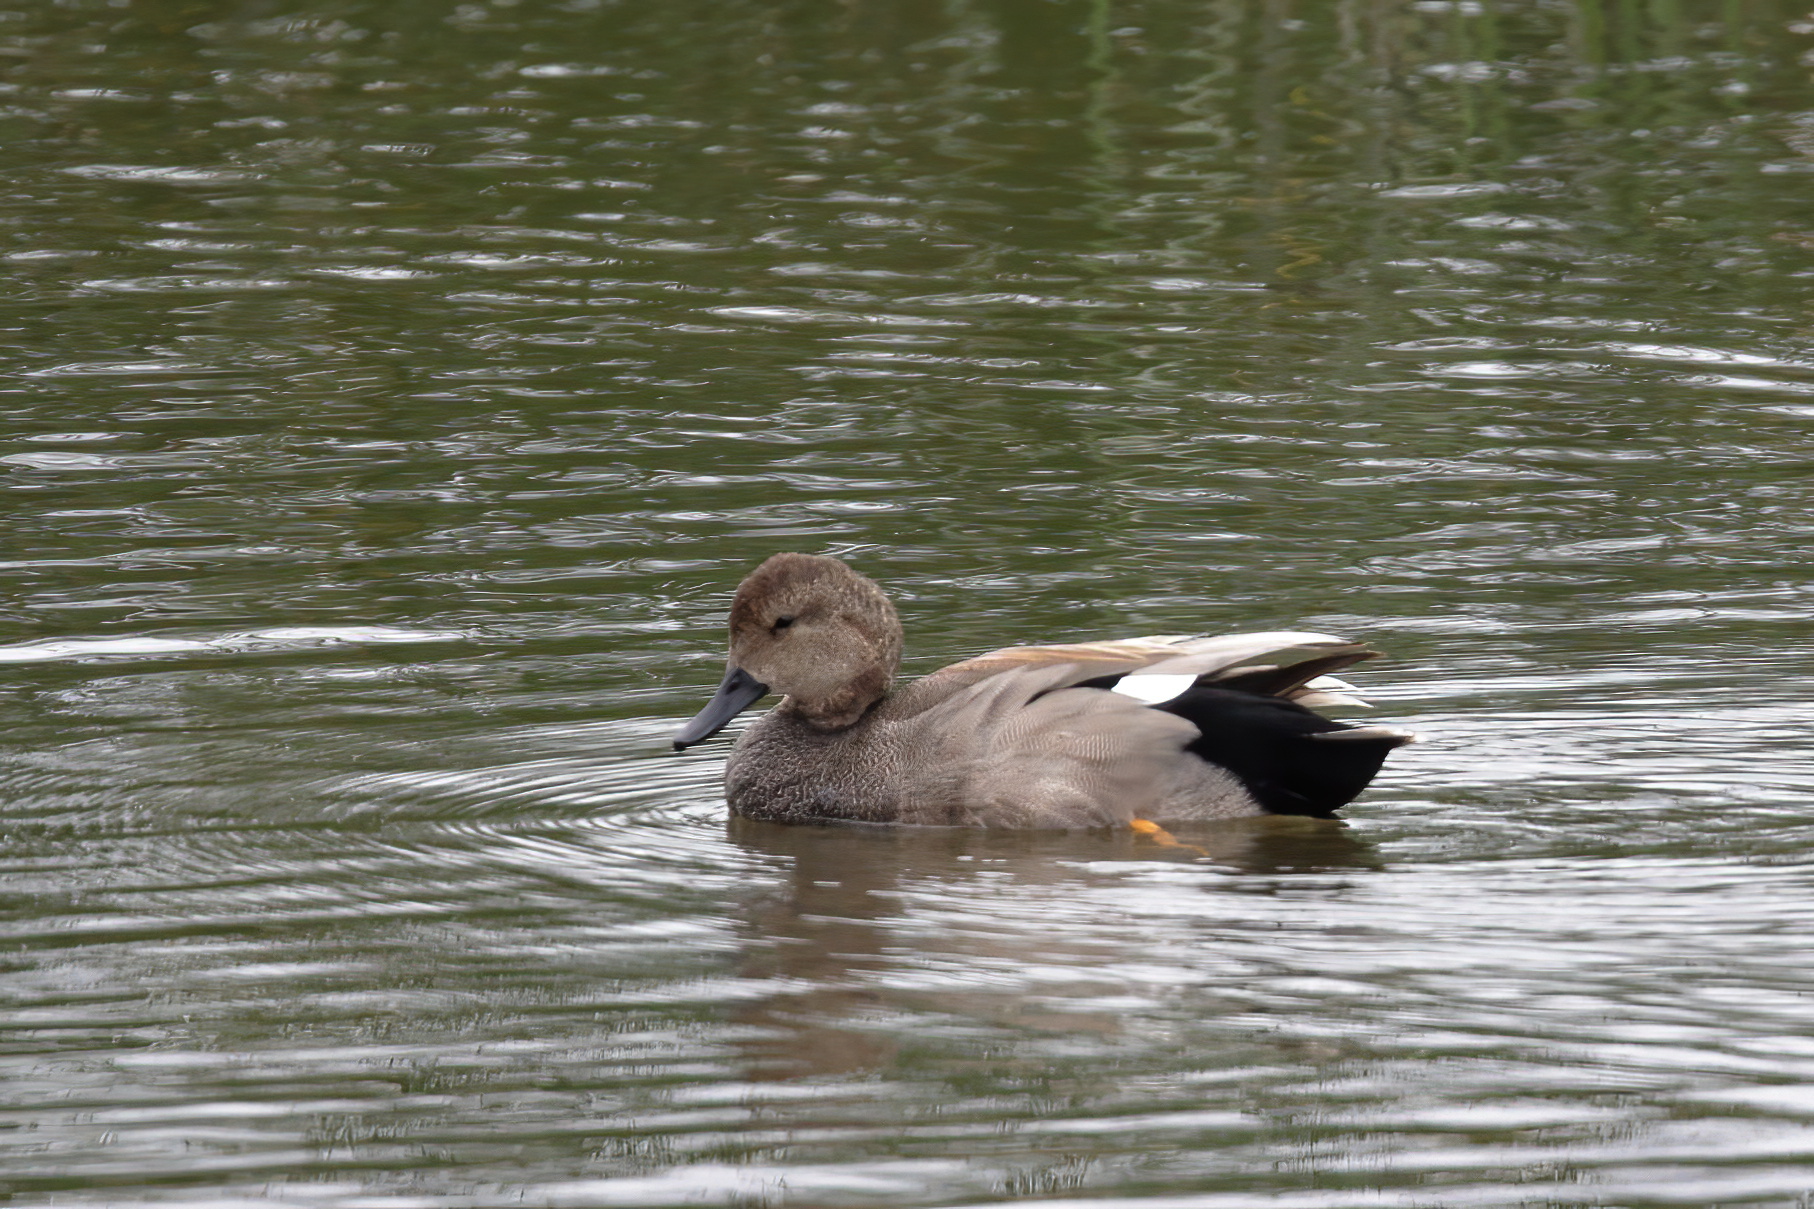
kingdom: Animalia
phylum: Chordata
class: Aves
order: Anseriformes
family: Anatidae
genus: Mareca
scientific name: Mareca strepera
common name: Gadwall
